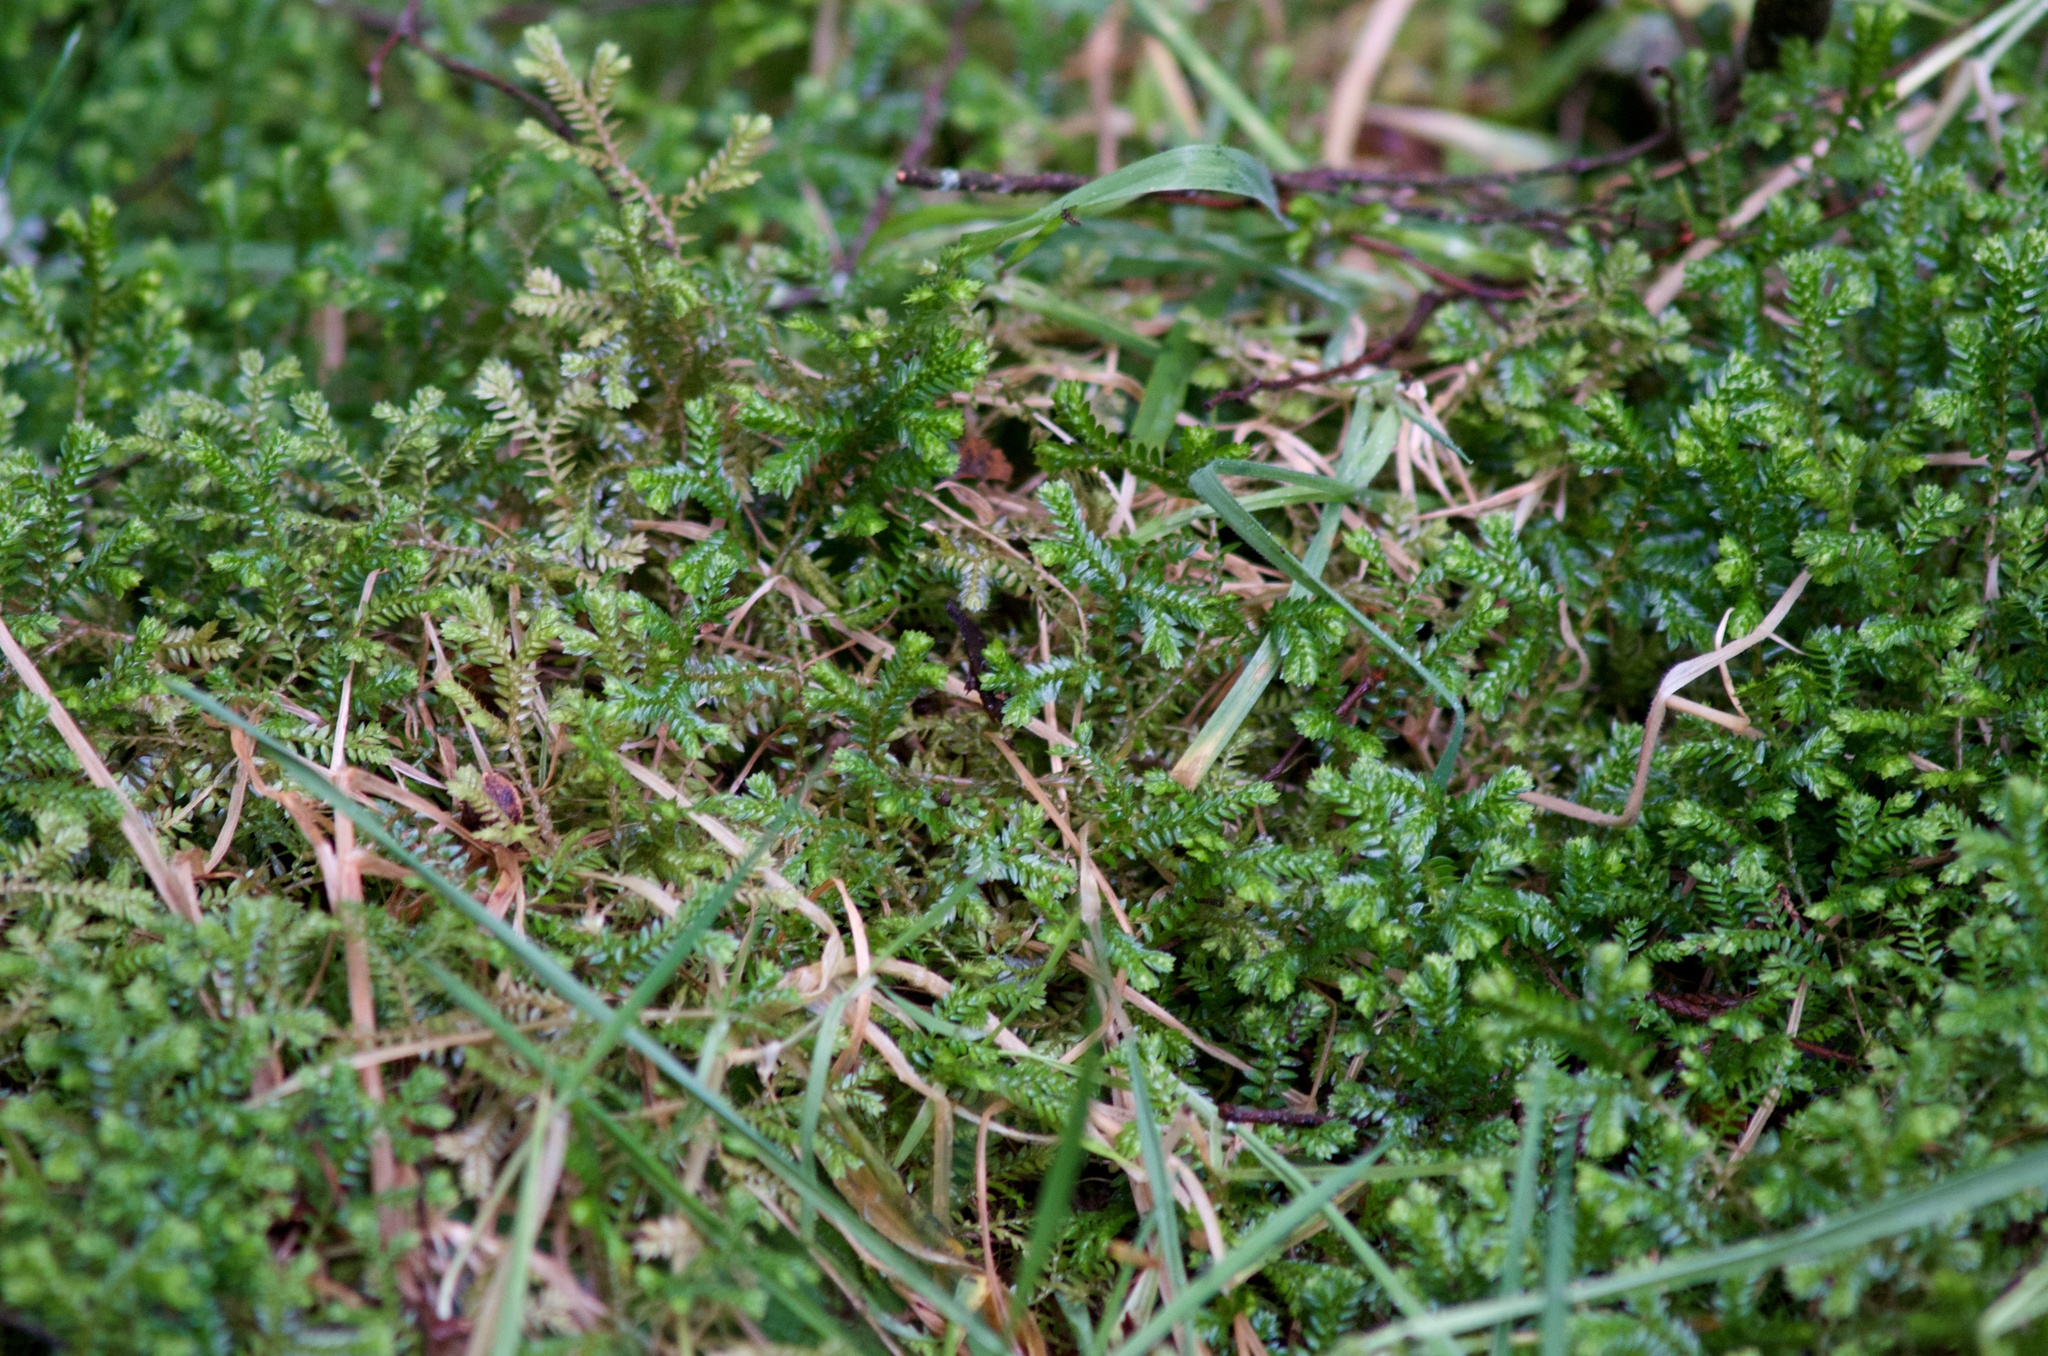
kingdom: Plantae
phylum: Tracheophyta
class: Lycopodiopsida
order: Selaginellales
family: Selaginellaceae
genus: Selaginella
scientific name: Selaginella kraussiana
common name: Krauss' spikemoss
